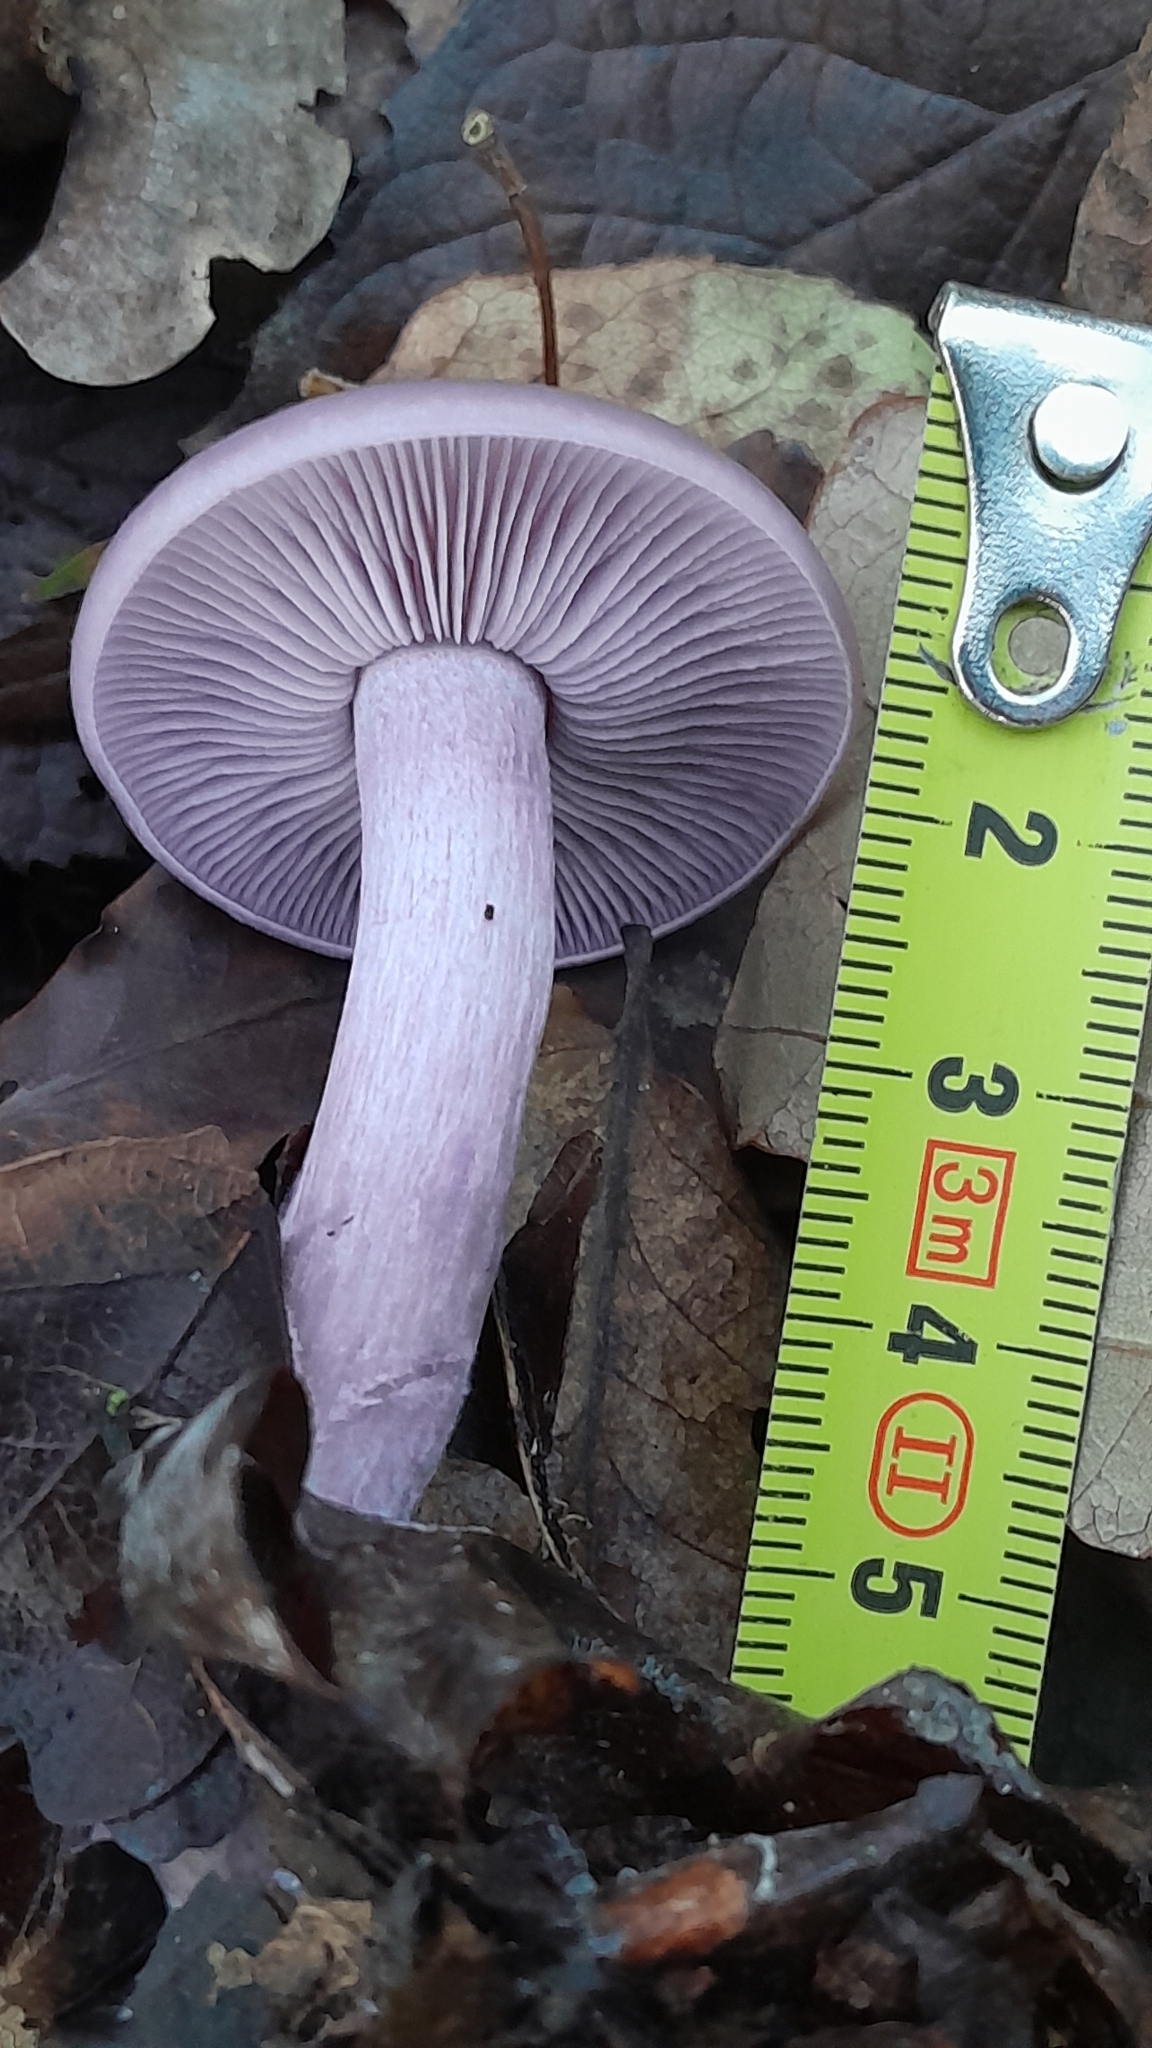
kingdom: Fungi
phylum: Basidiomycota
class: Agaricomycetes
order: Agaricales
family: Tricholomataceae
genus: Collybia
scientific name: Collybia
